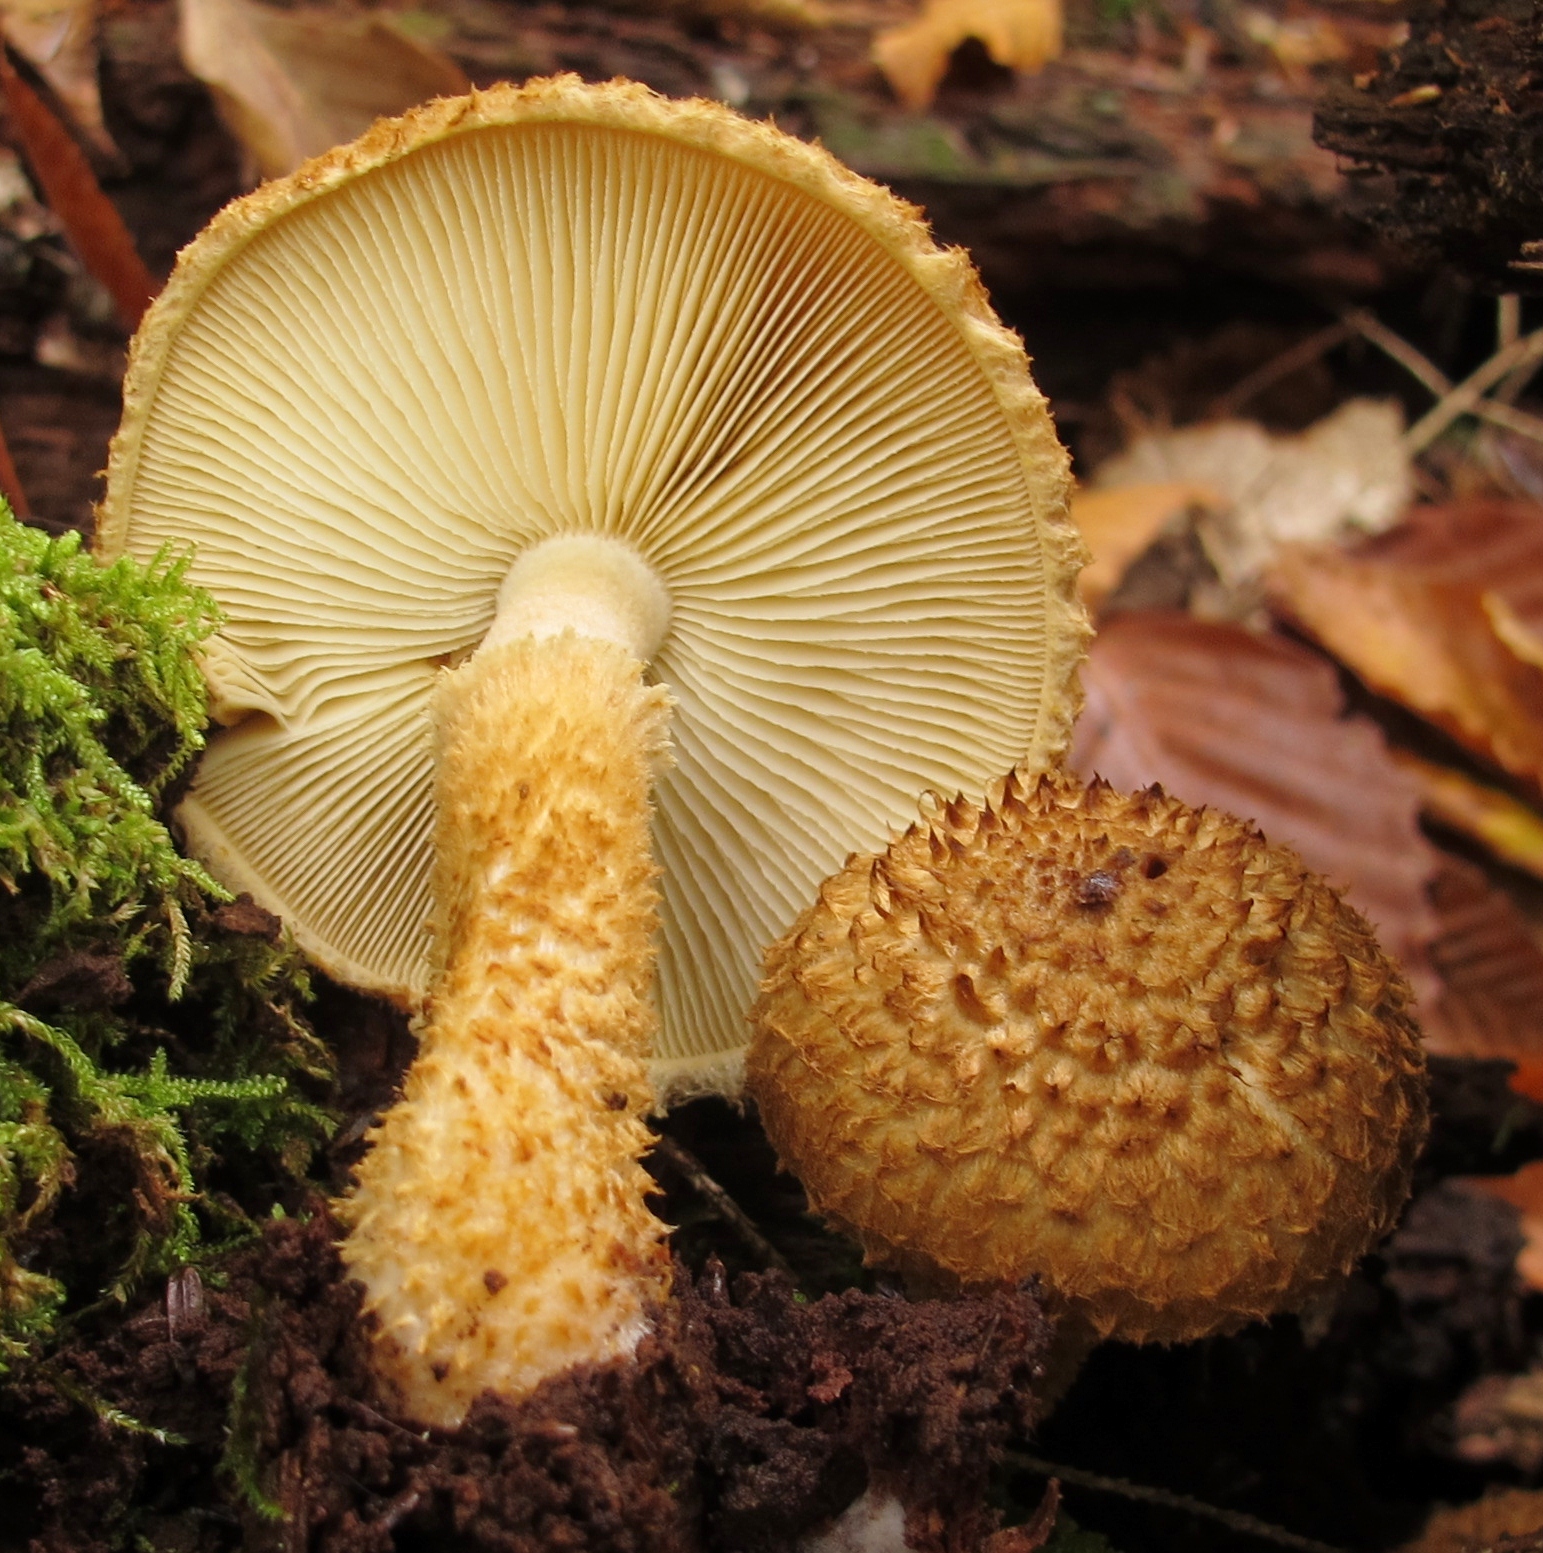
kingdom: Fungi
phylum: Basidiomycota
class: Agaricomycetes
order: Agaricales
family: Agaricaceae
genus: Leucopholiota
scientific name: Leucopholiota decorosa
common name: Decorated pholiota
